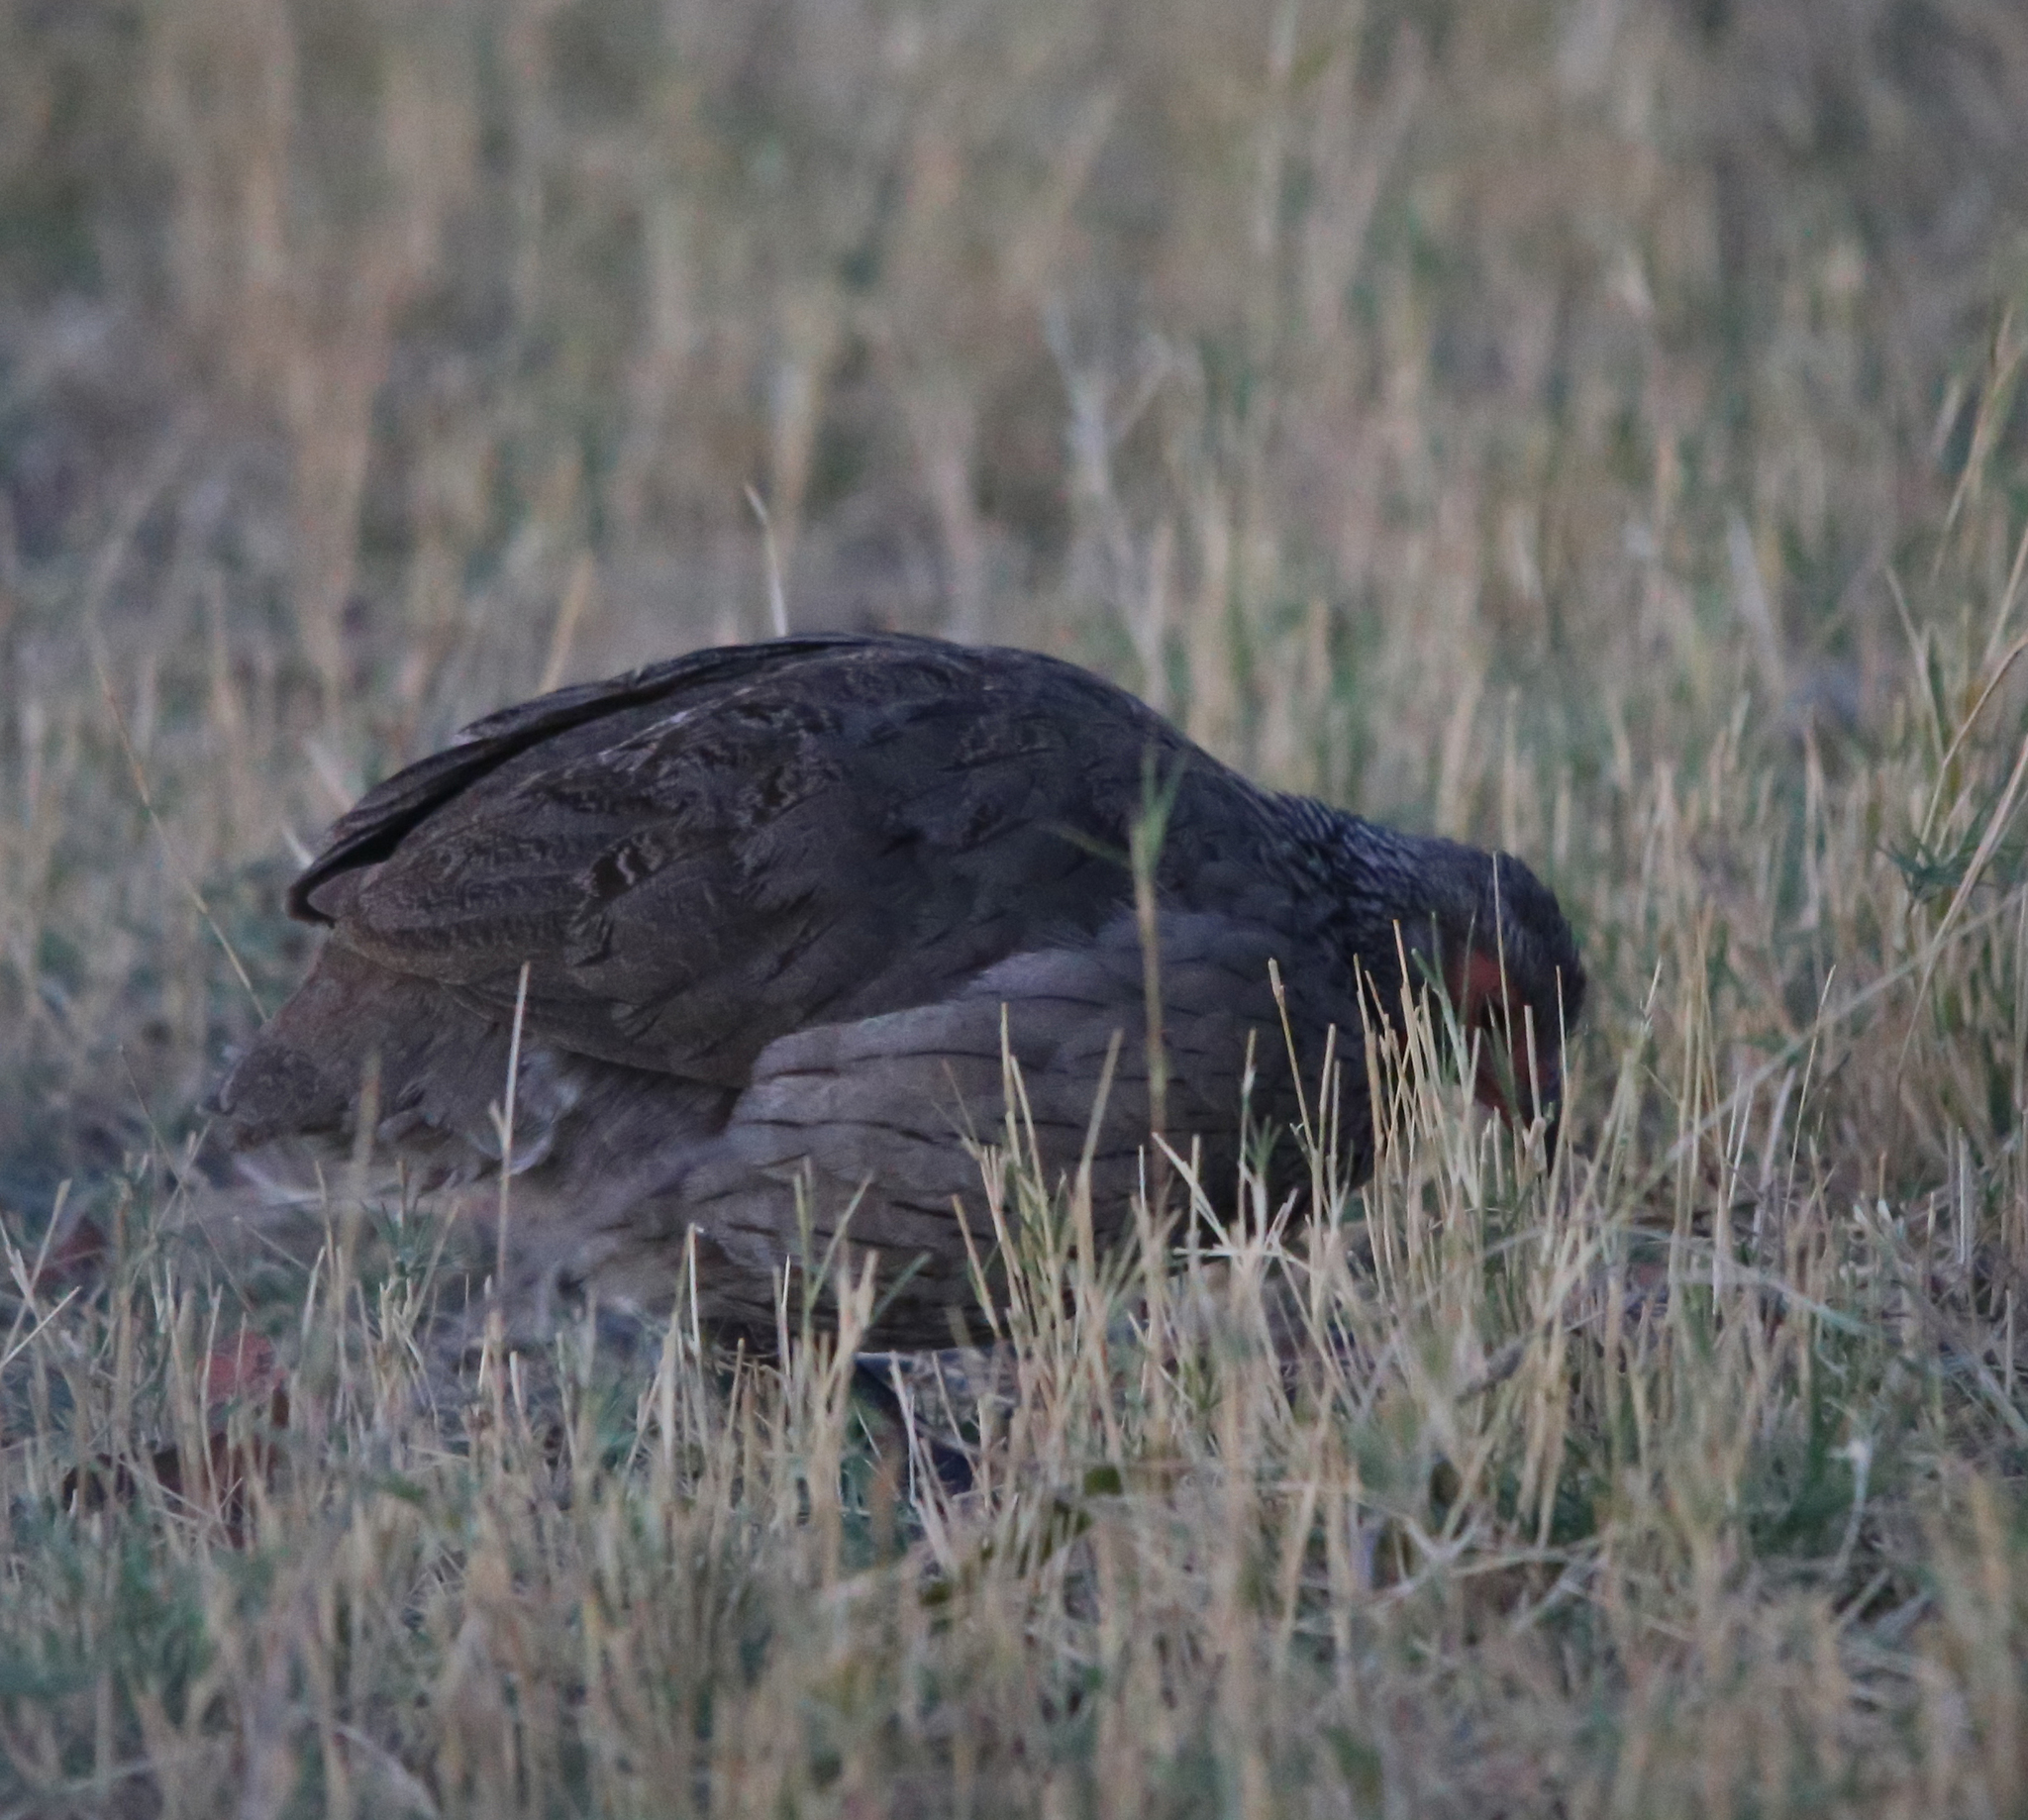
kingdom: Animalia
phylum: Chordata
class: Aves
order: Galliformes
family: Phasianidae
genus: Pternistis
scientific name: Pternistis swainsonii
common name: Swainson's spurfowl
